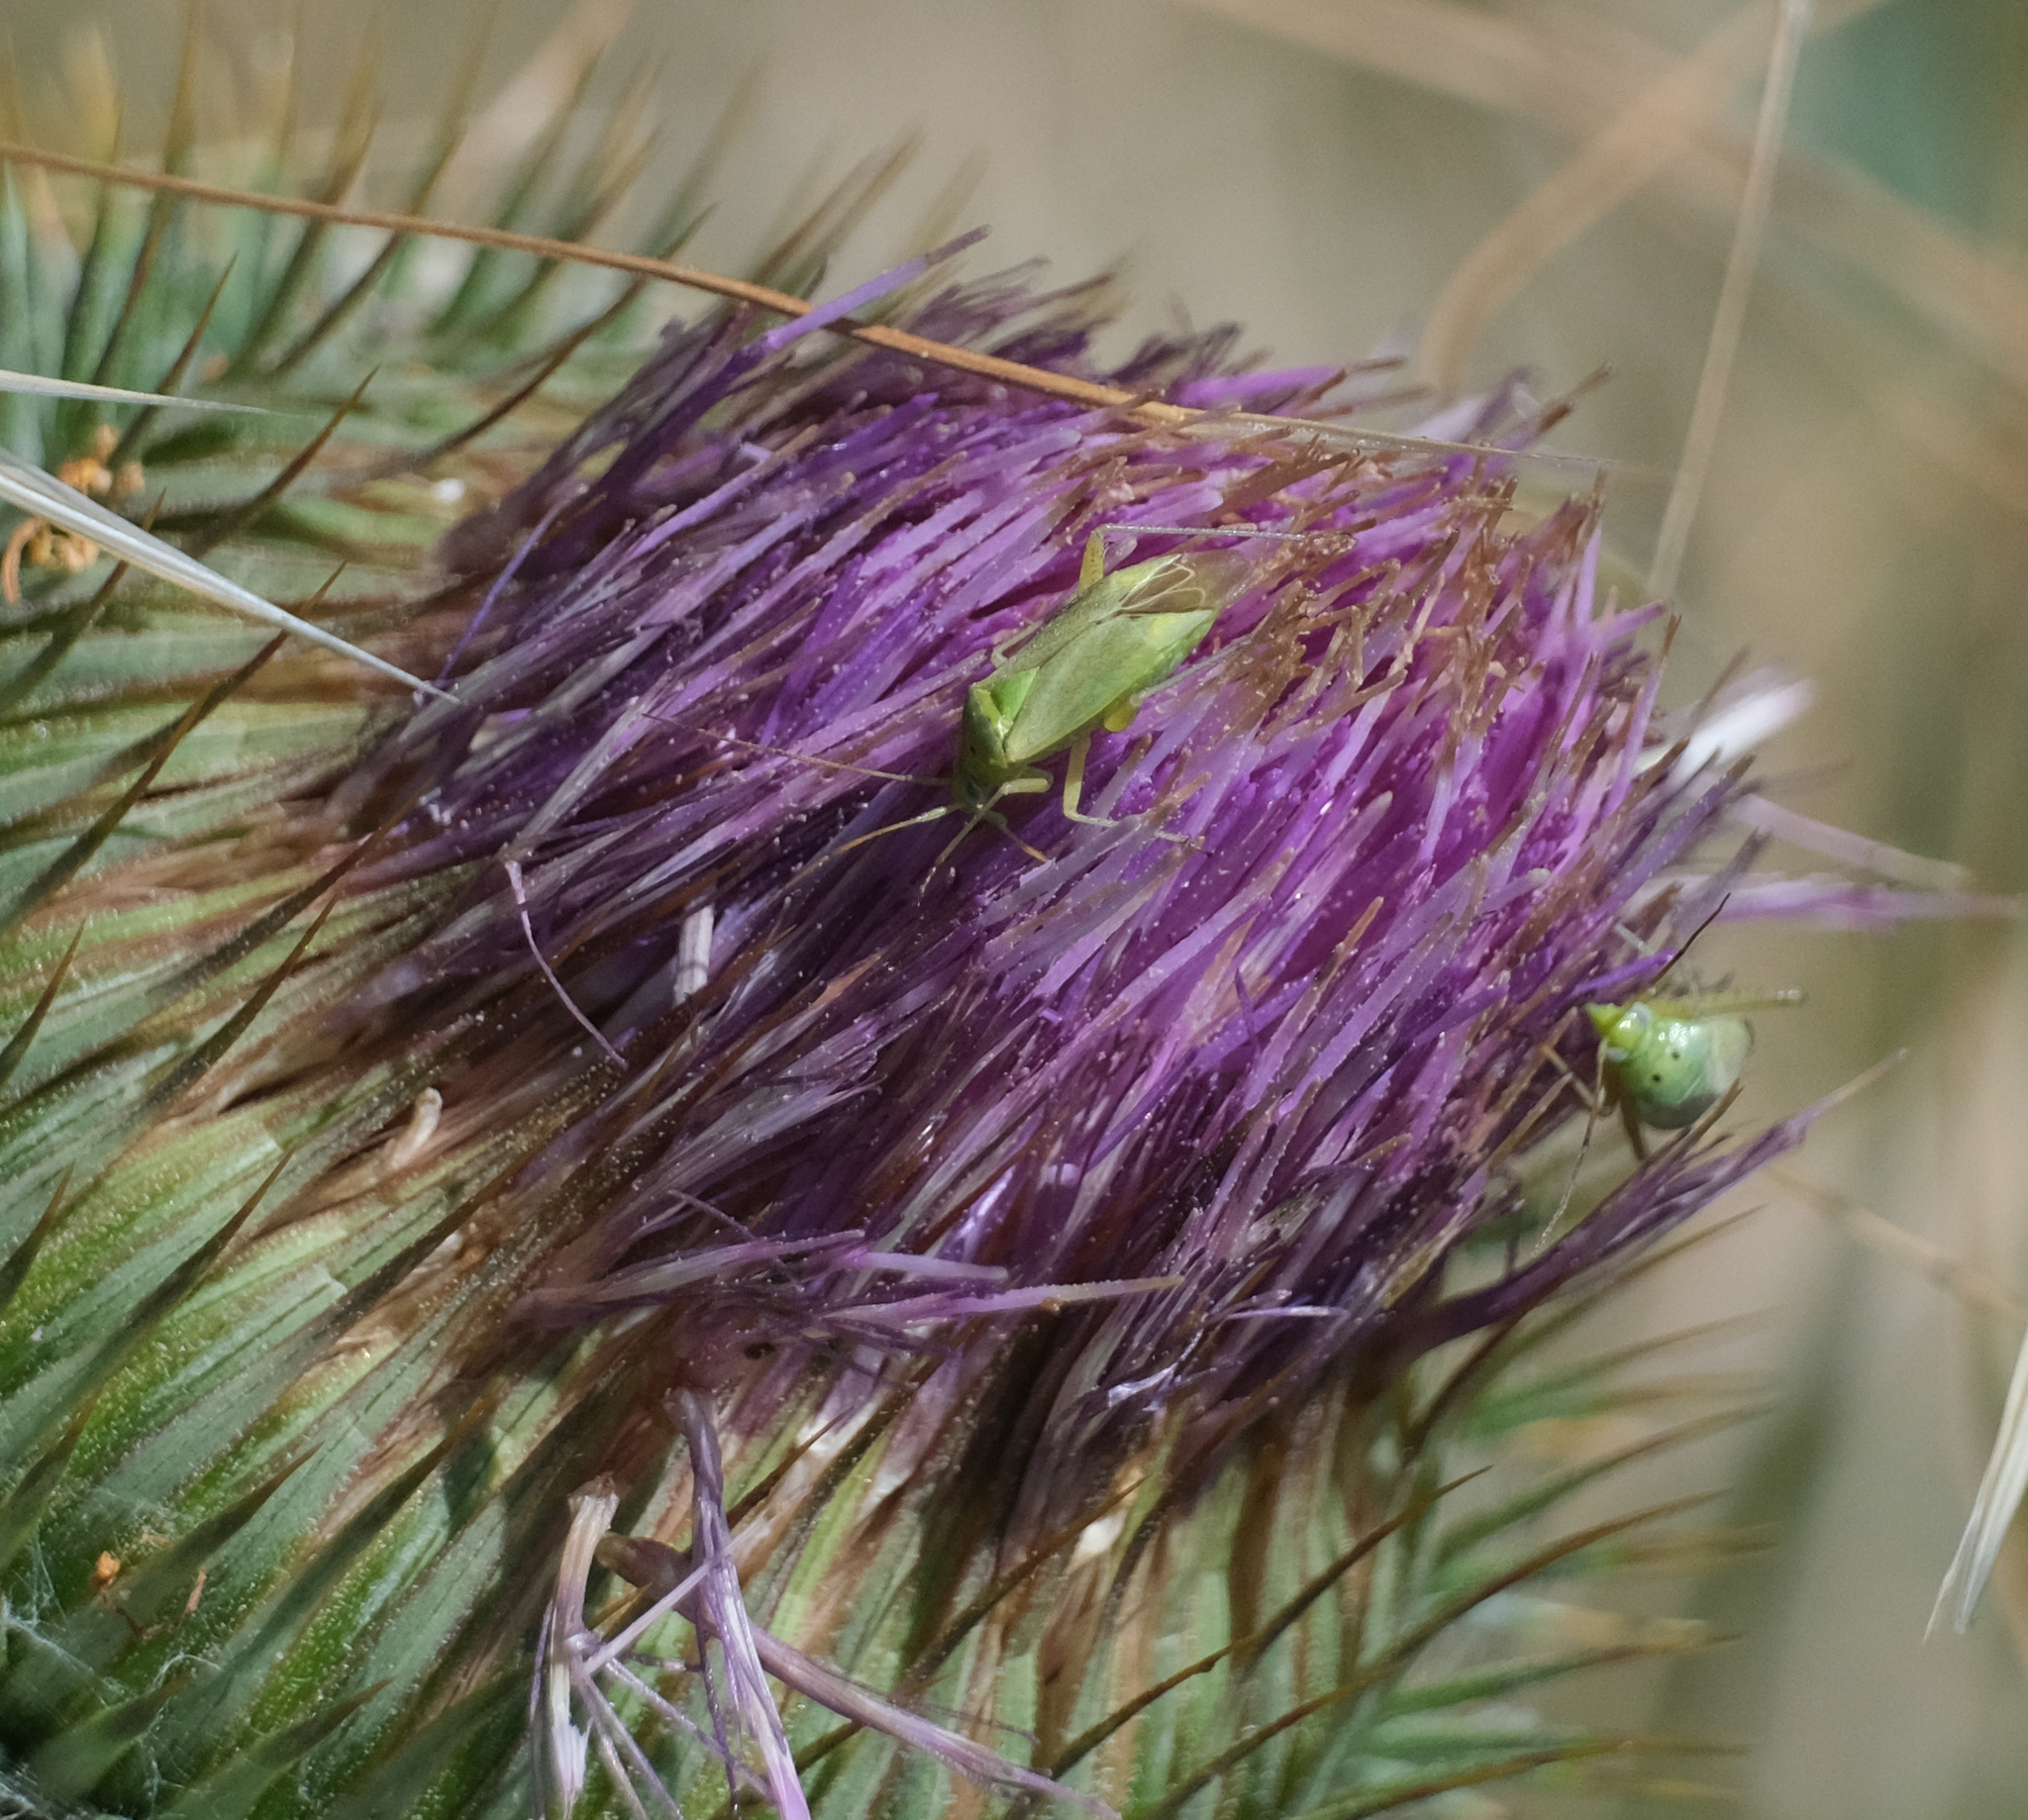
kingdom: Animalia
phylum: Arthropoda
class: Insecta
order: Hemiptera
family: Miridae
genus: Closterotomus
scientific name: Closterotomus norvegicus
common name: Plant bug
